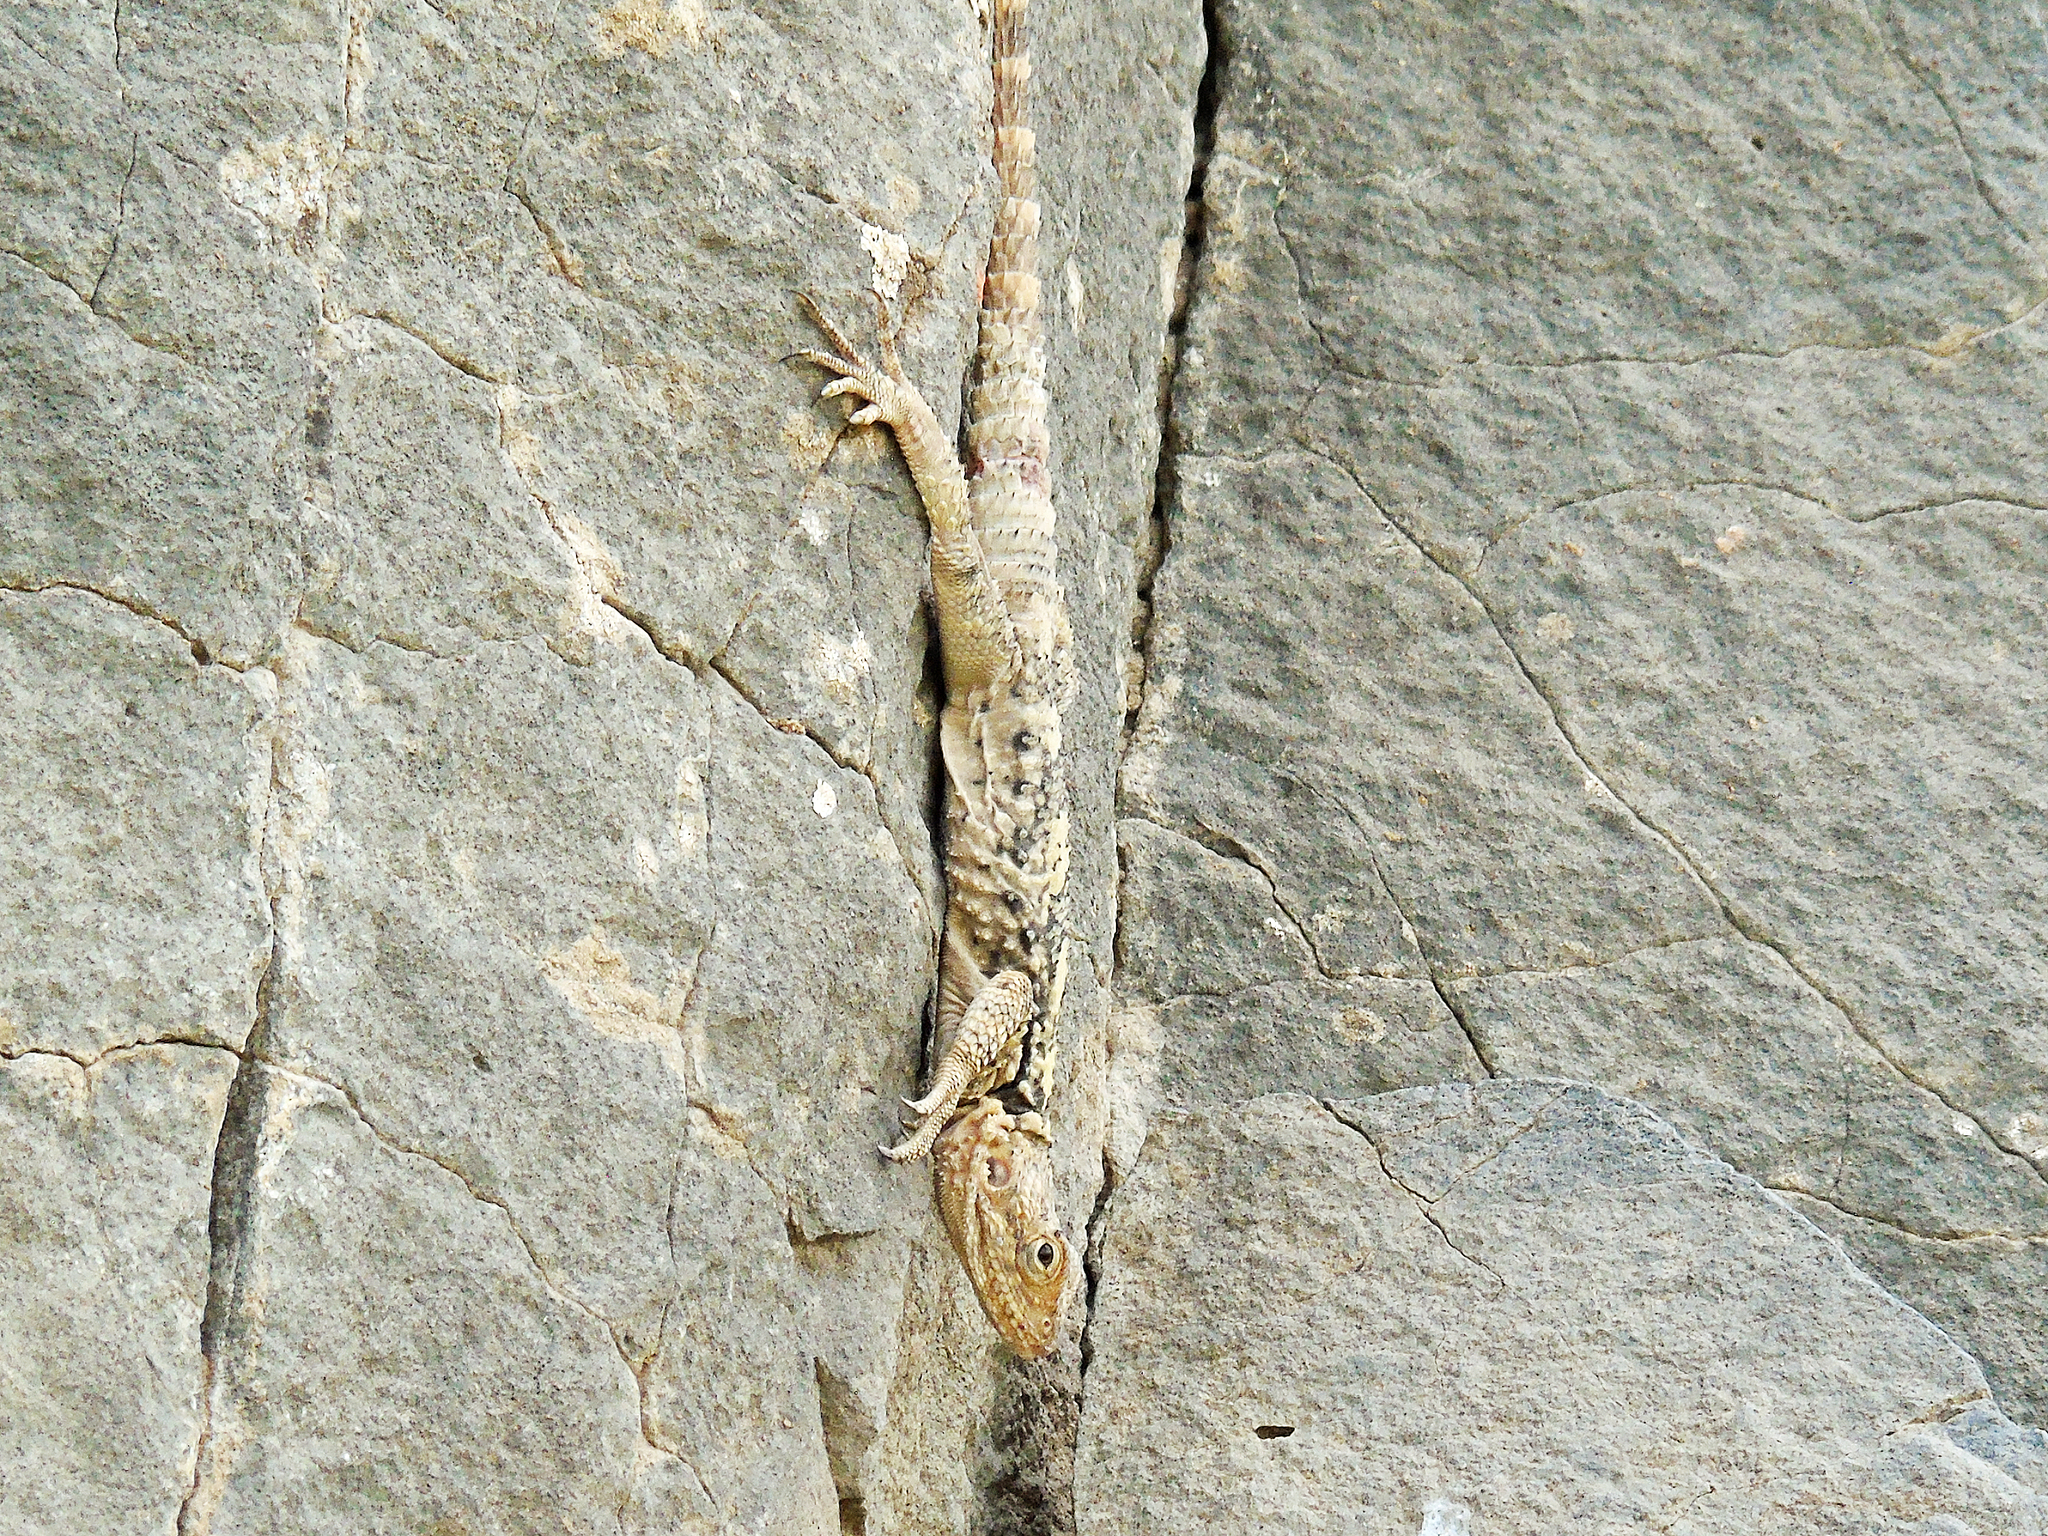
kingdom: Animalia
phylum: Chordata
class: Squamata
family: Agamidae
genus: Stellagama
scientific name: Stellagama stellio
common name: Starred agama
